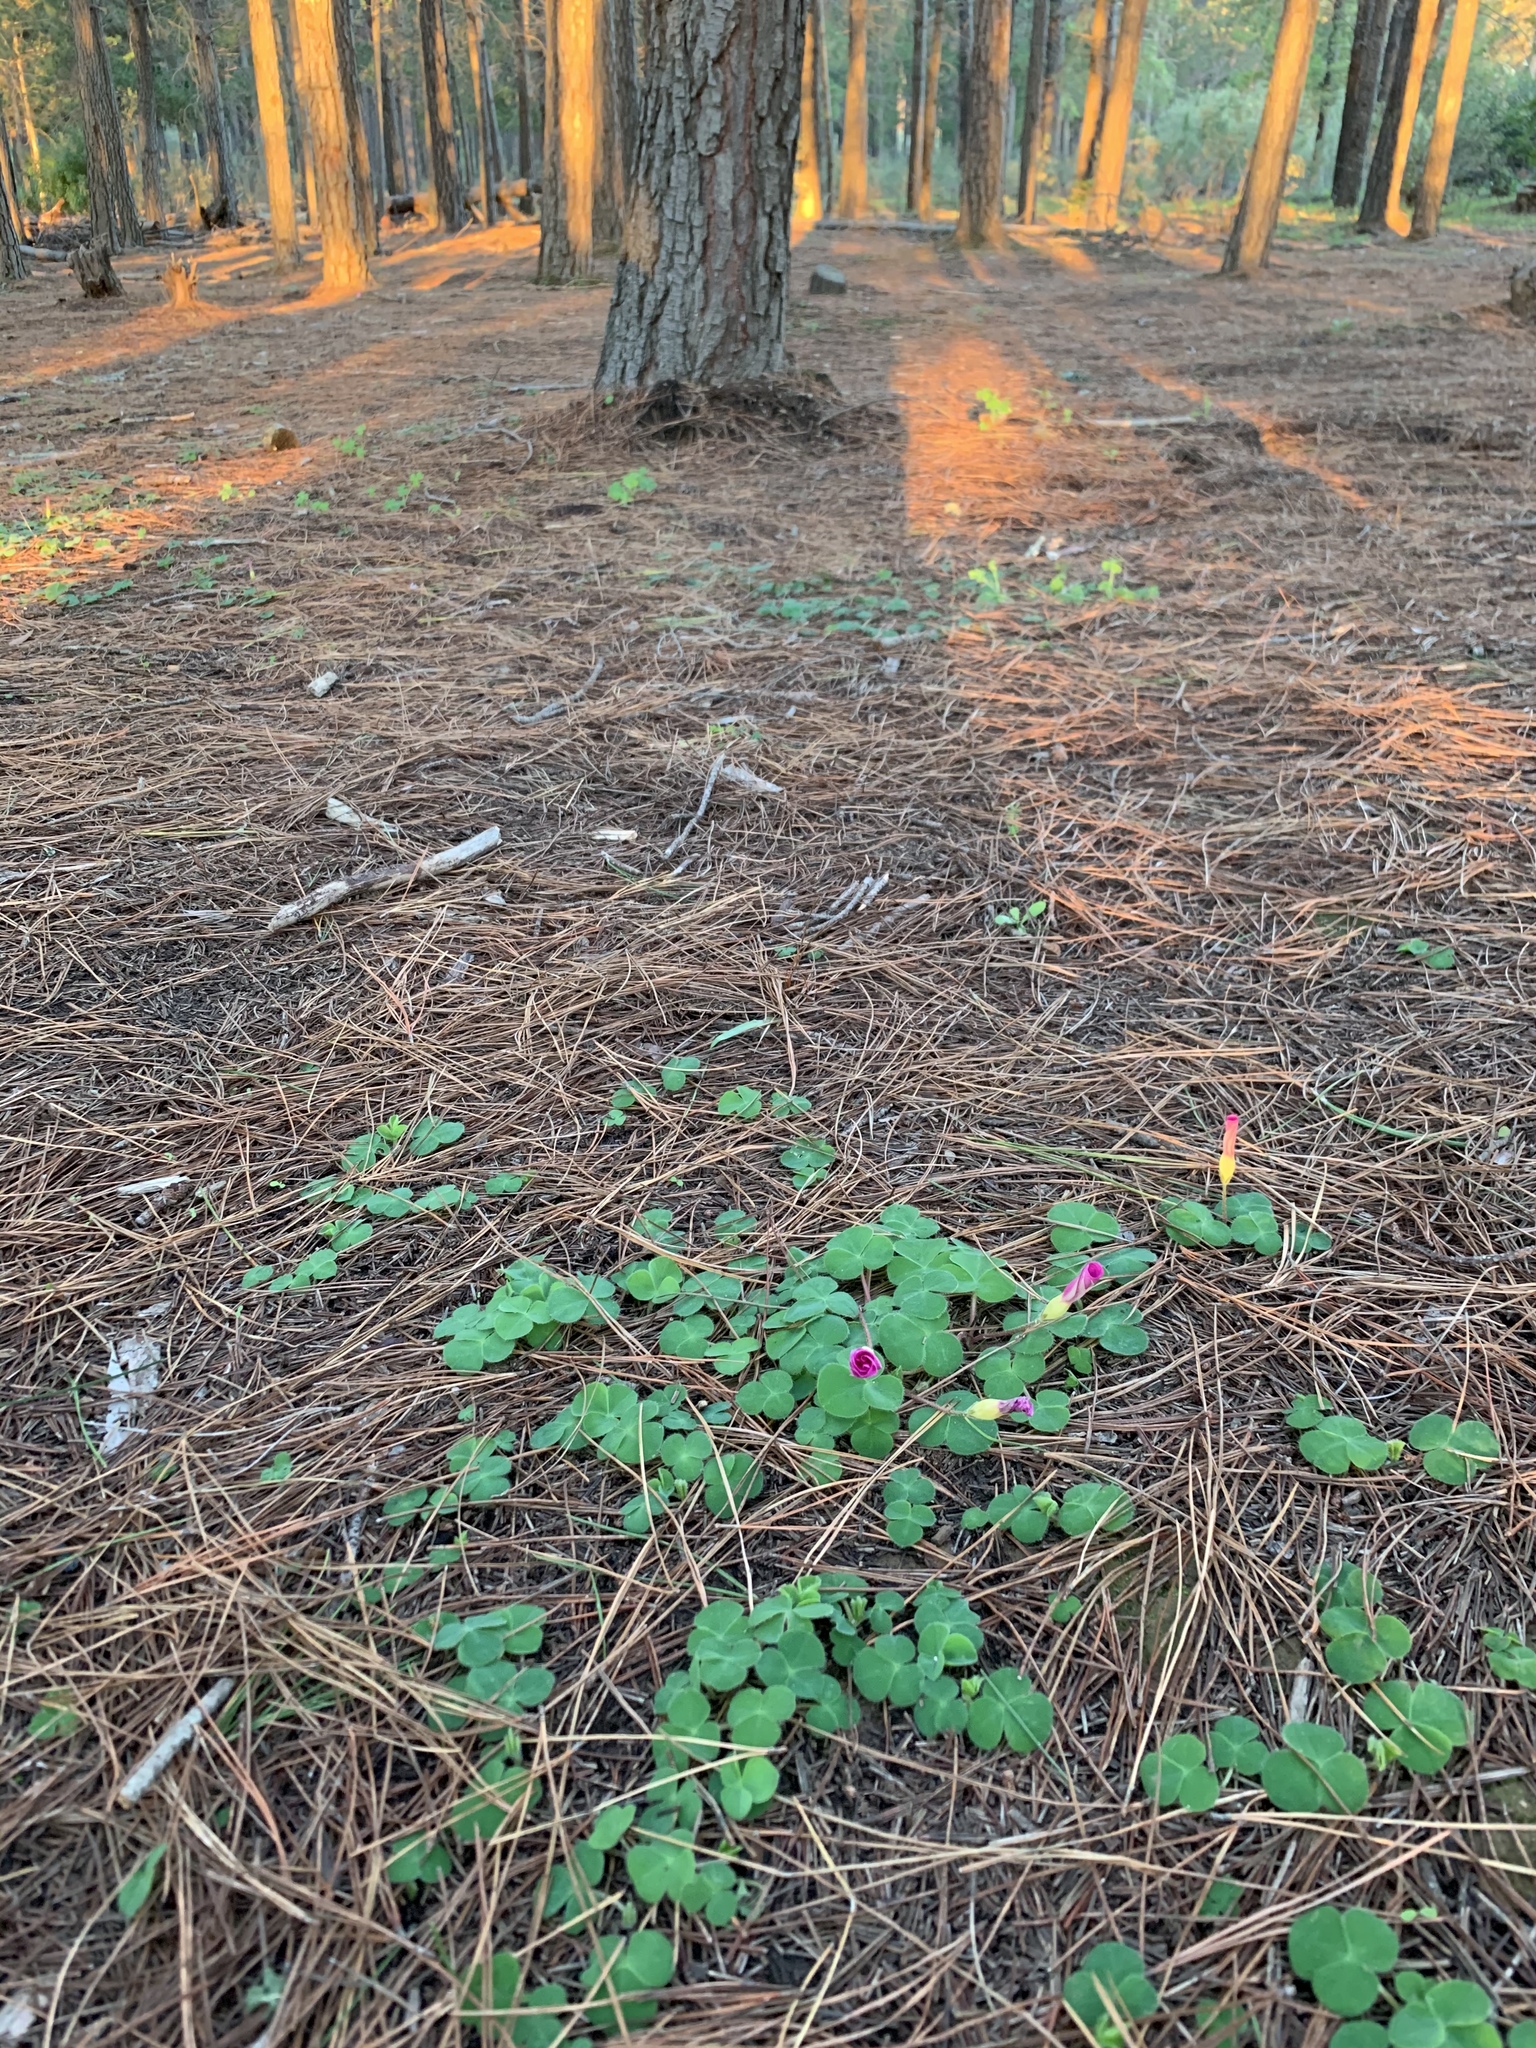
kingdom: Plantae
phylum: Tracheophyta
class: Magnoliopsida
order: Oxalidales
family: Oxalidaceae
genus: Oxalis
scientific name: Oxalis purpurea
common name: Purple woodsorrel
